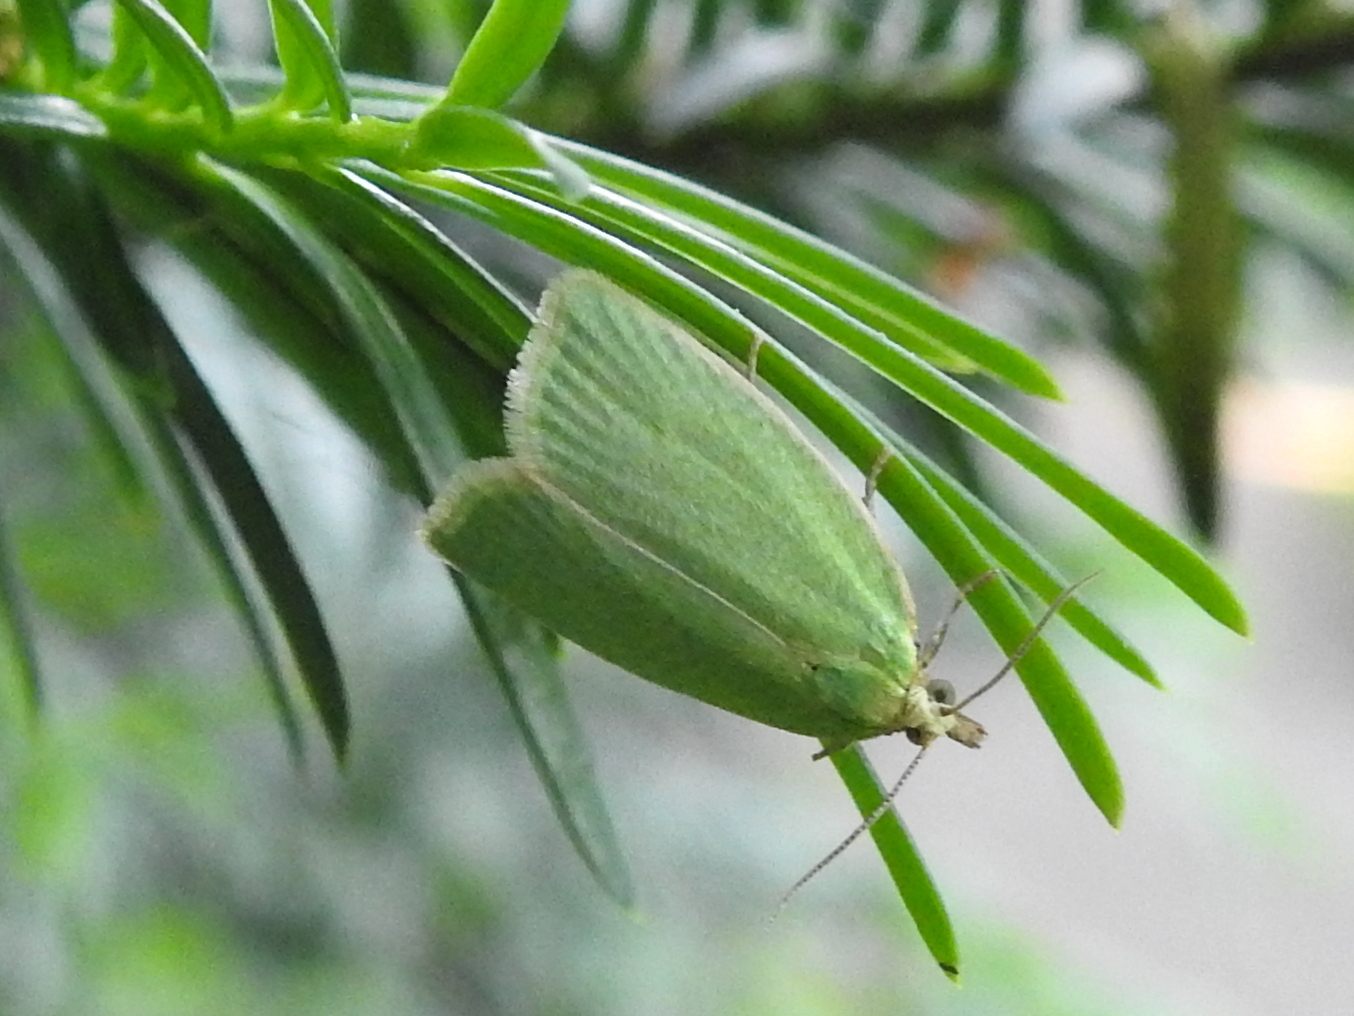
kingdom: Animalia
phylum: Arthropoda
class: Insecta
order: Lepidoptera
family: Tortricidae
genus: Tortrix
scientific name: Tortrix viridana
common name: Green oak tortrix
